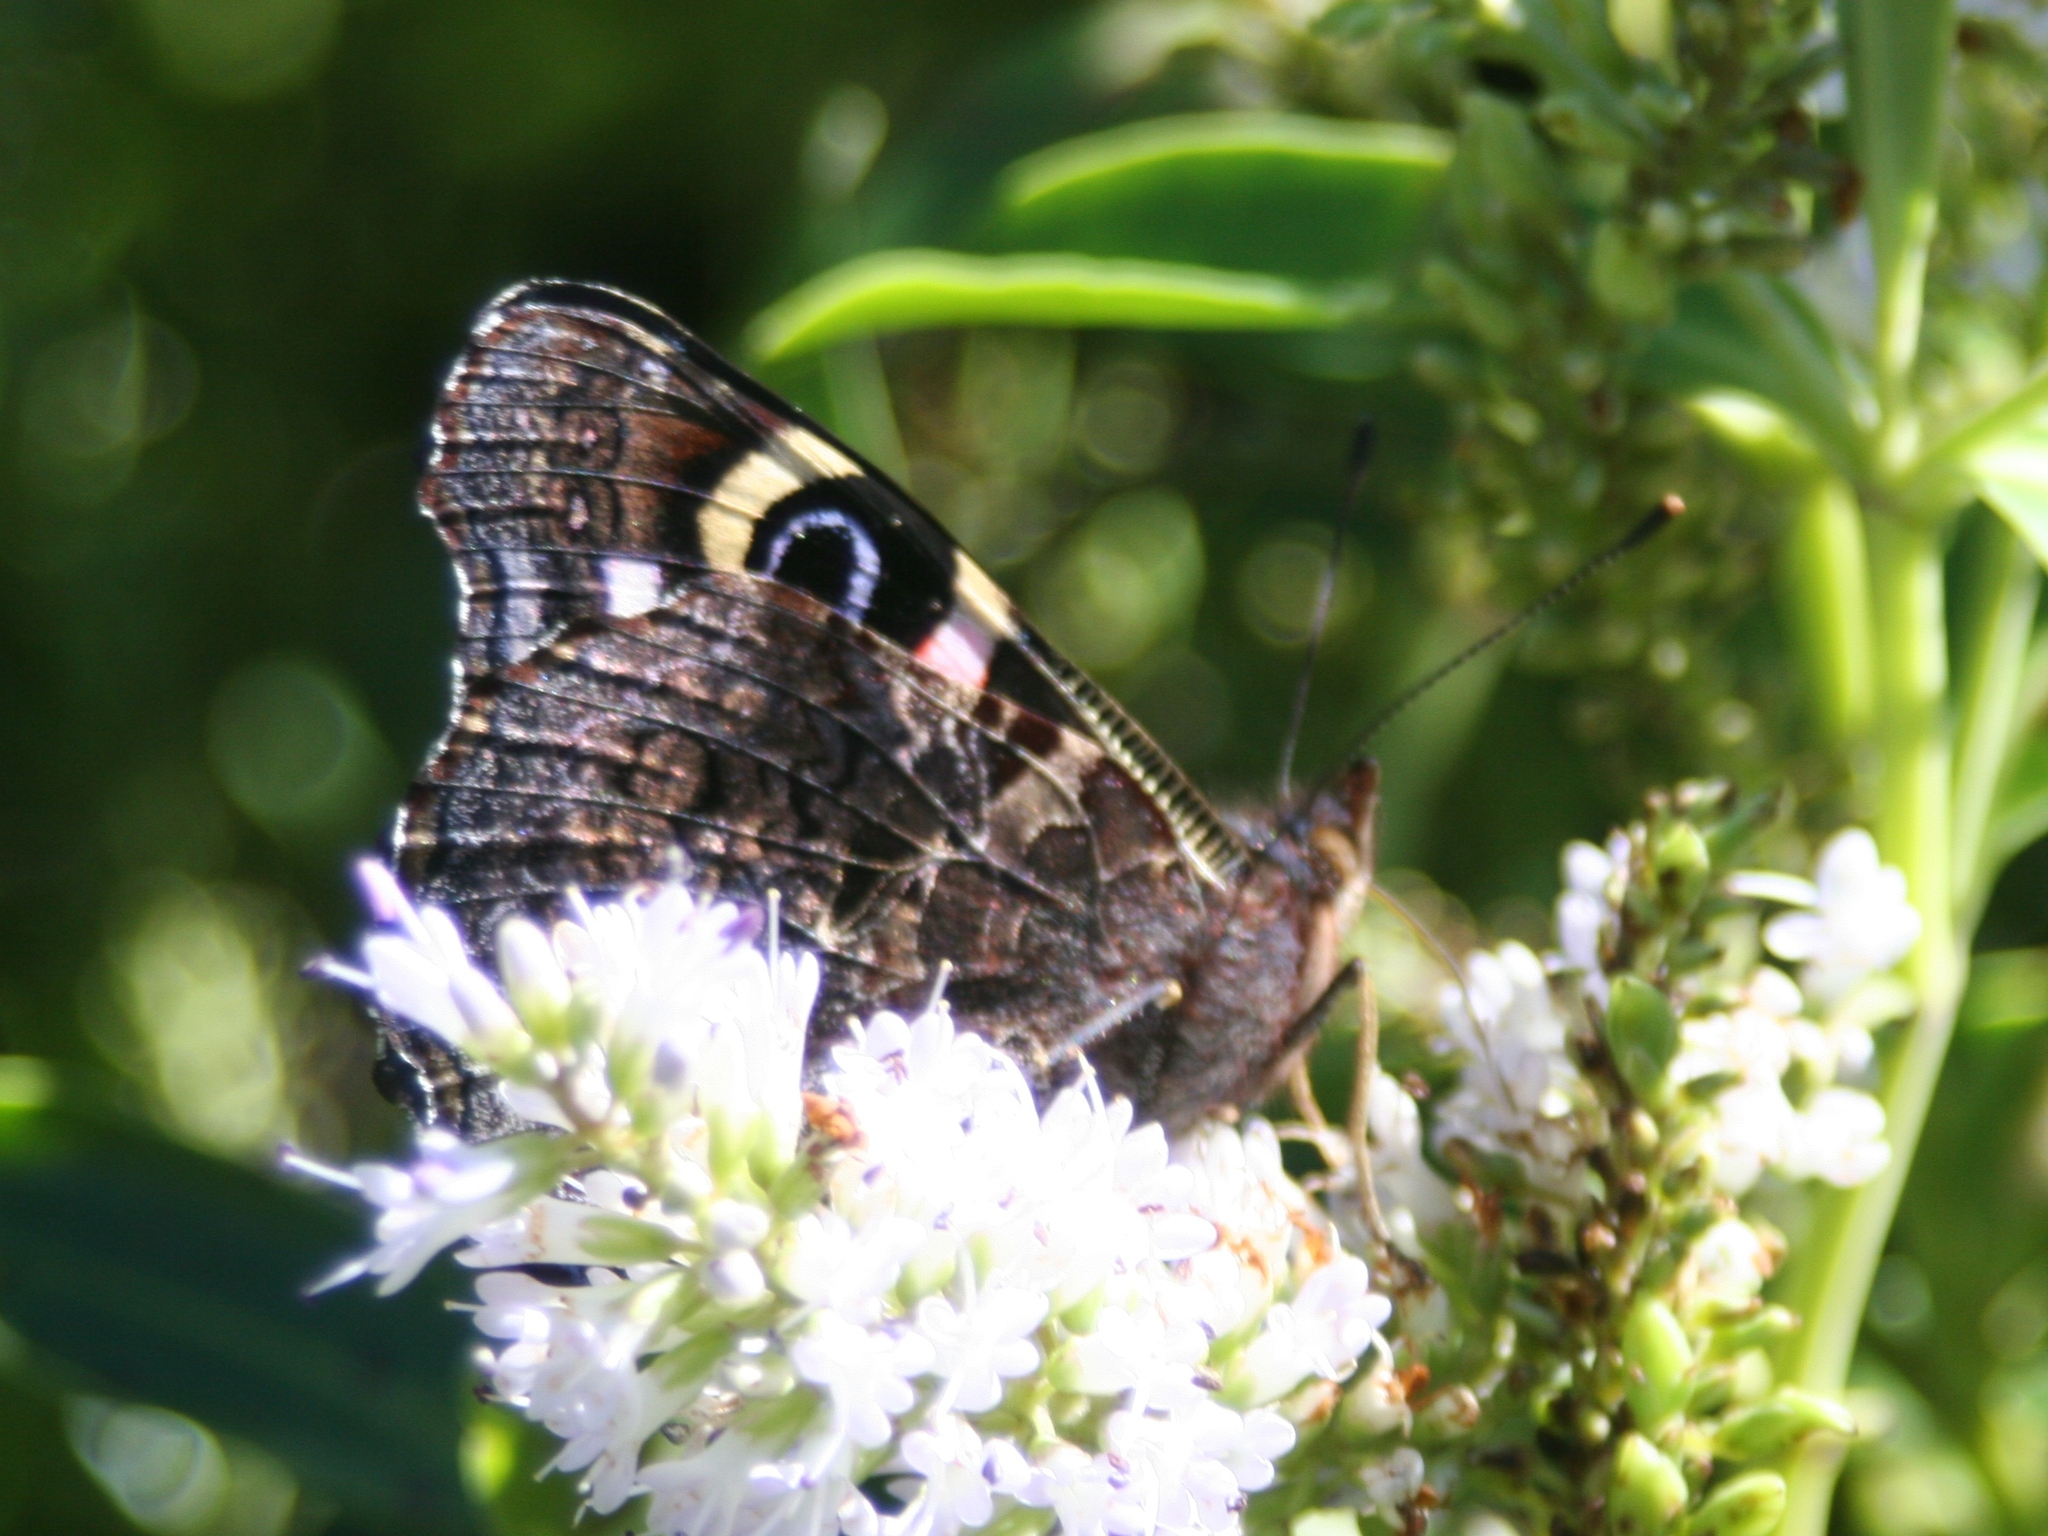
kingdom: Animalia
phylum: Arthropoda
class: Insecta
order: Lepidoptera
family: Nymphalidae
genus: Vanessa
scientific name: Vanessa gonerilla
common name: New zealand red admiral
